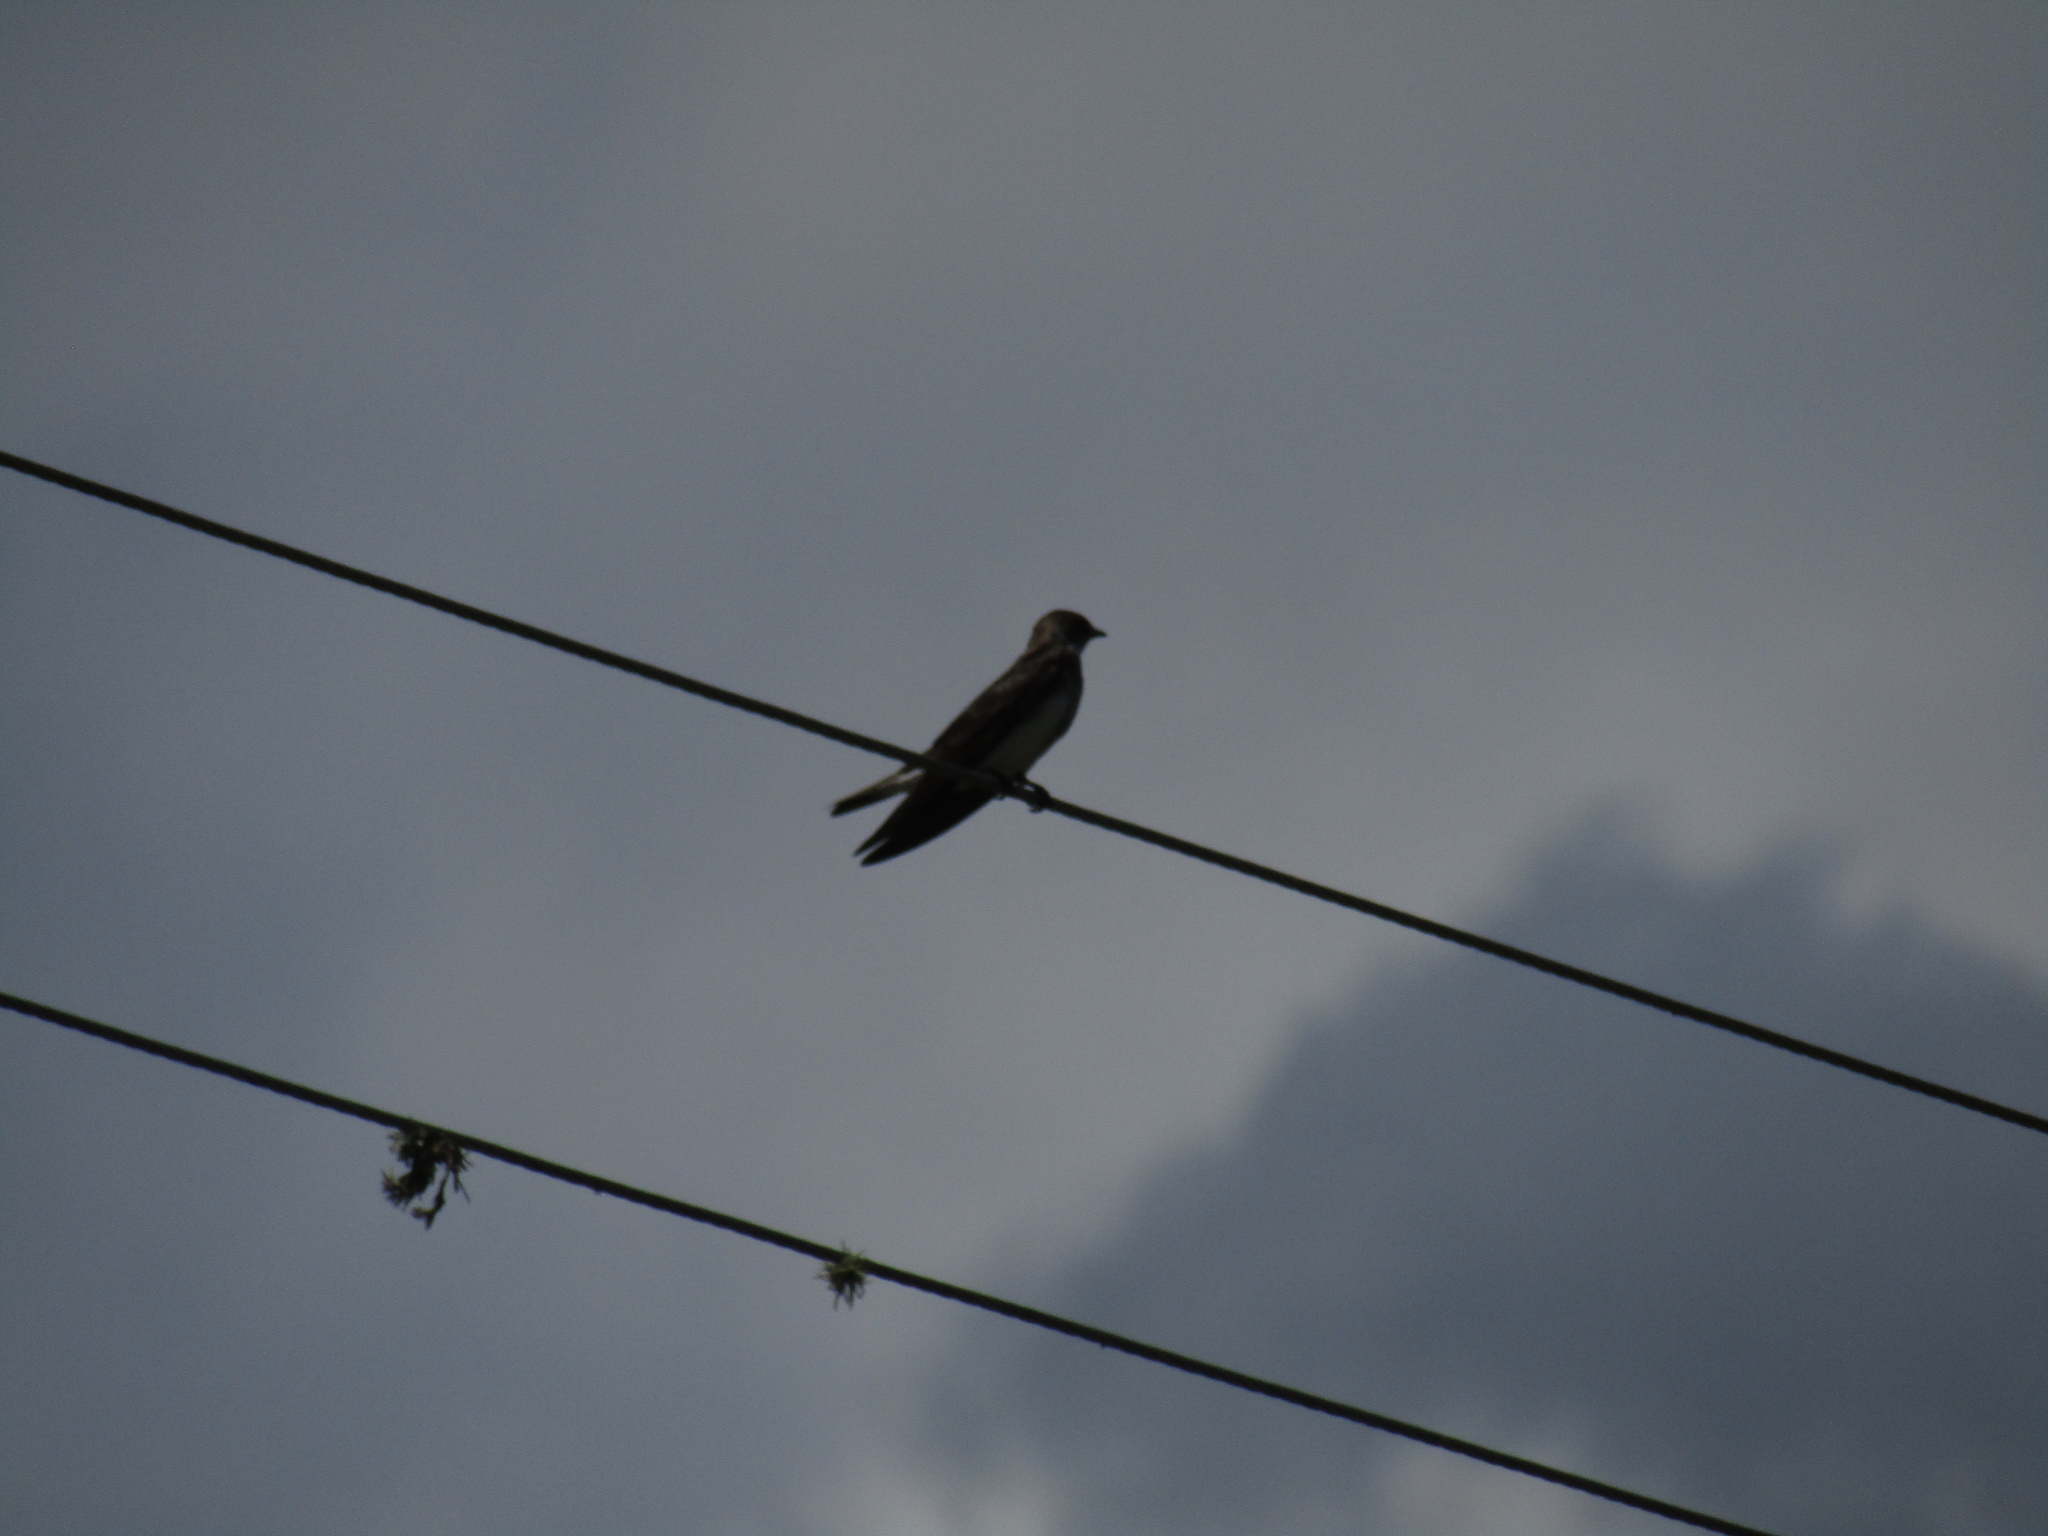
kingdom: Animalia
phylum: Chordata
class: Aves
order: Passeriformes
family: Hirundinidae
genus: Progne
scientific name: Progne tapera
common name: Brown-chested martin
